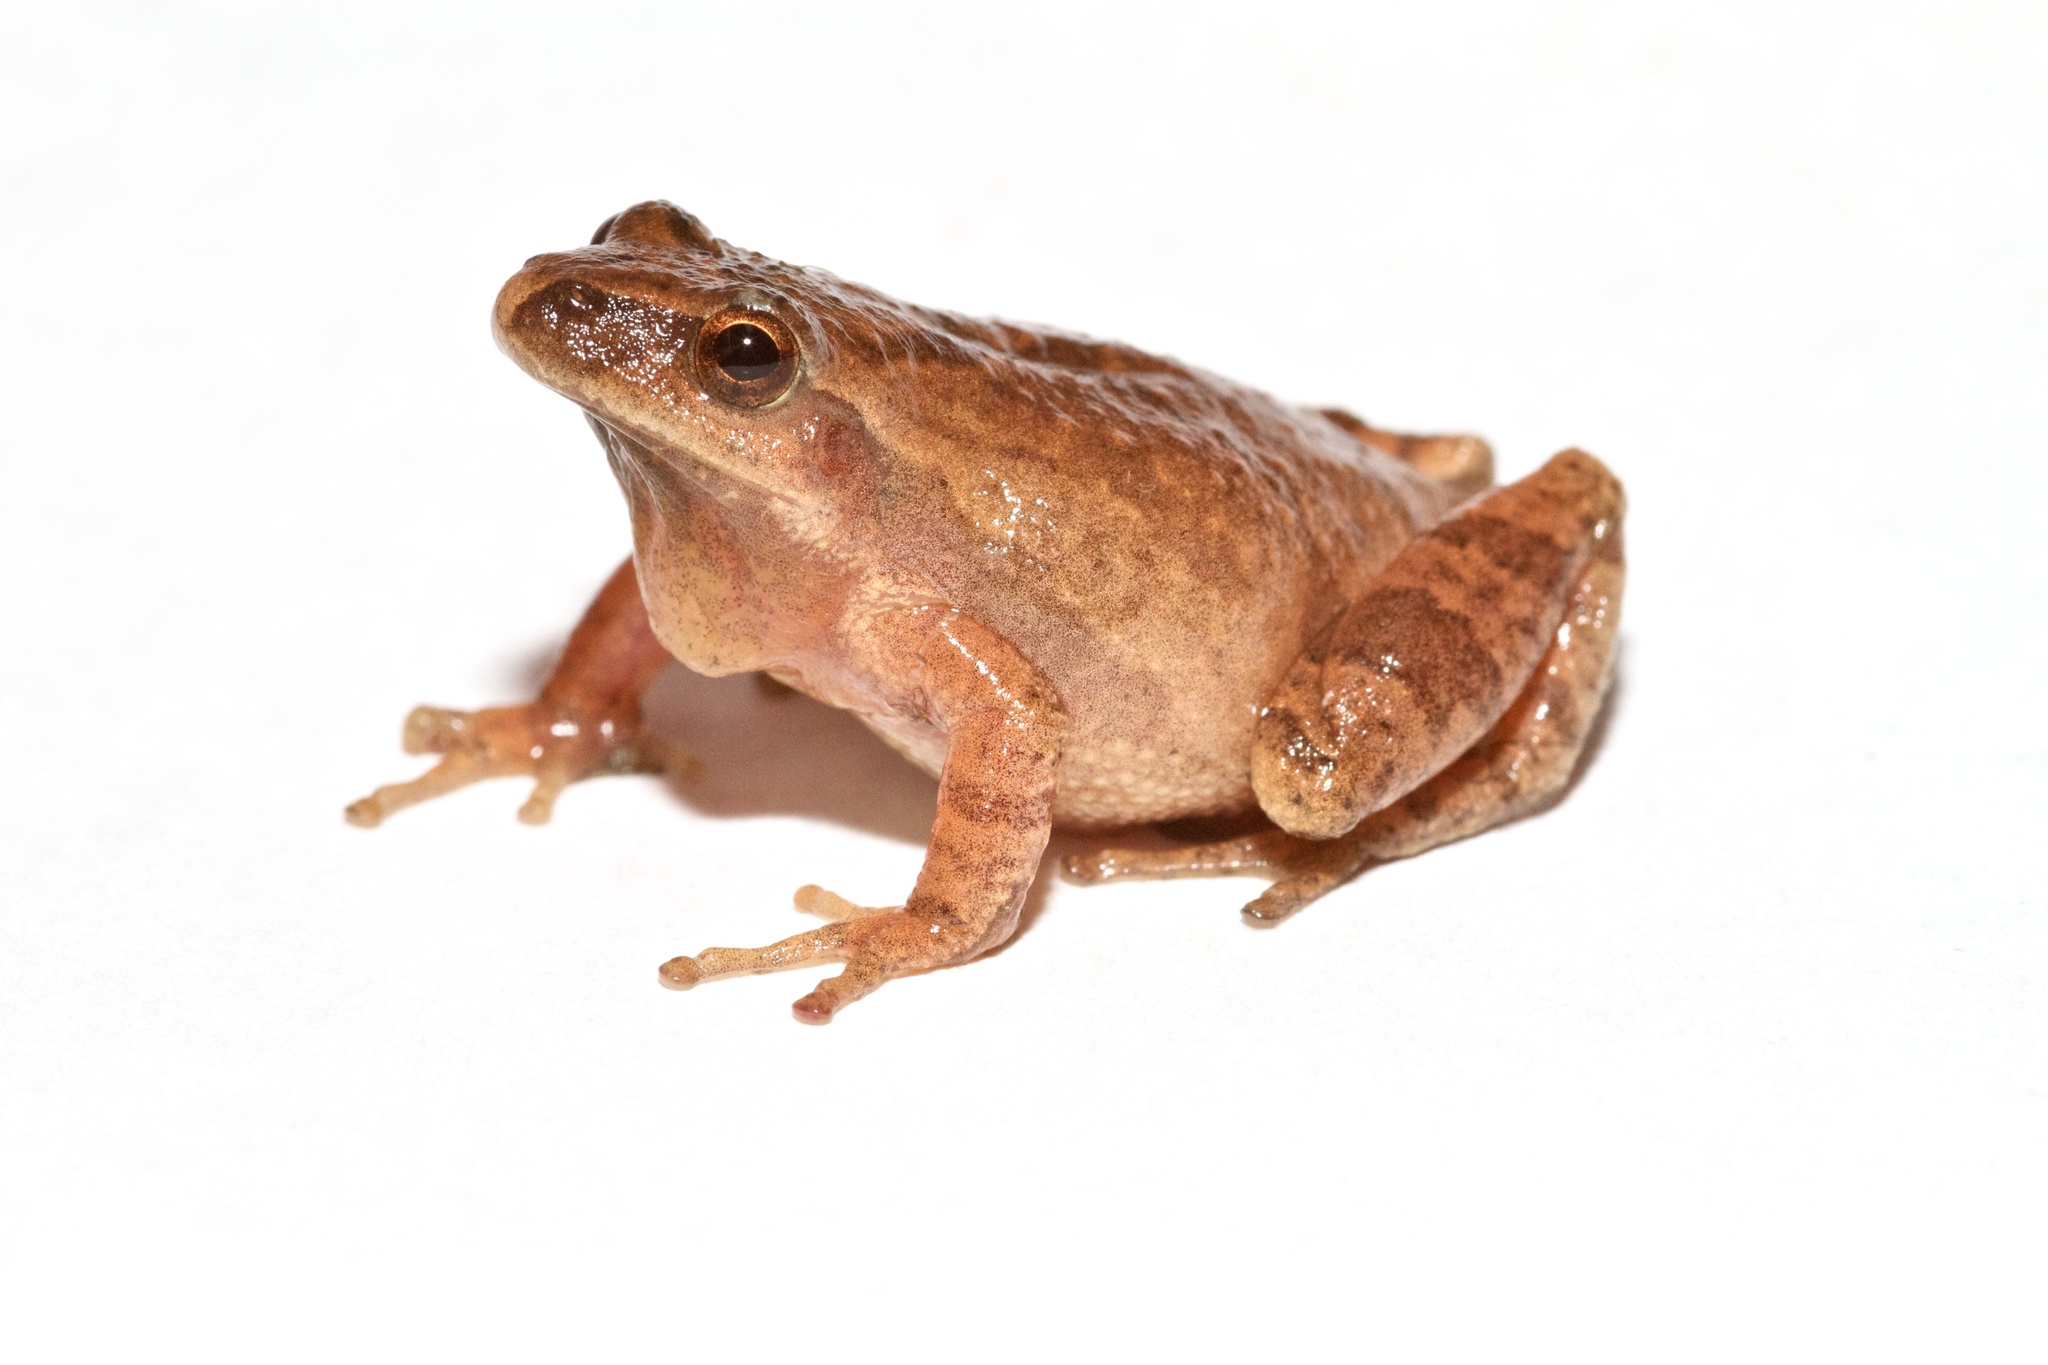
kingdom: Animalia
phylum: Chordata
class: Amphibia
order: Anura
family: Hylidae
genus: Pseudacris
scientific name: Pseudacris crucifer
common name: Spring peeper
